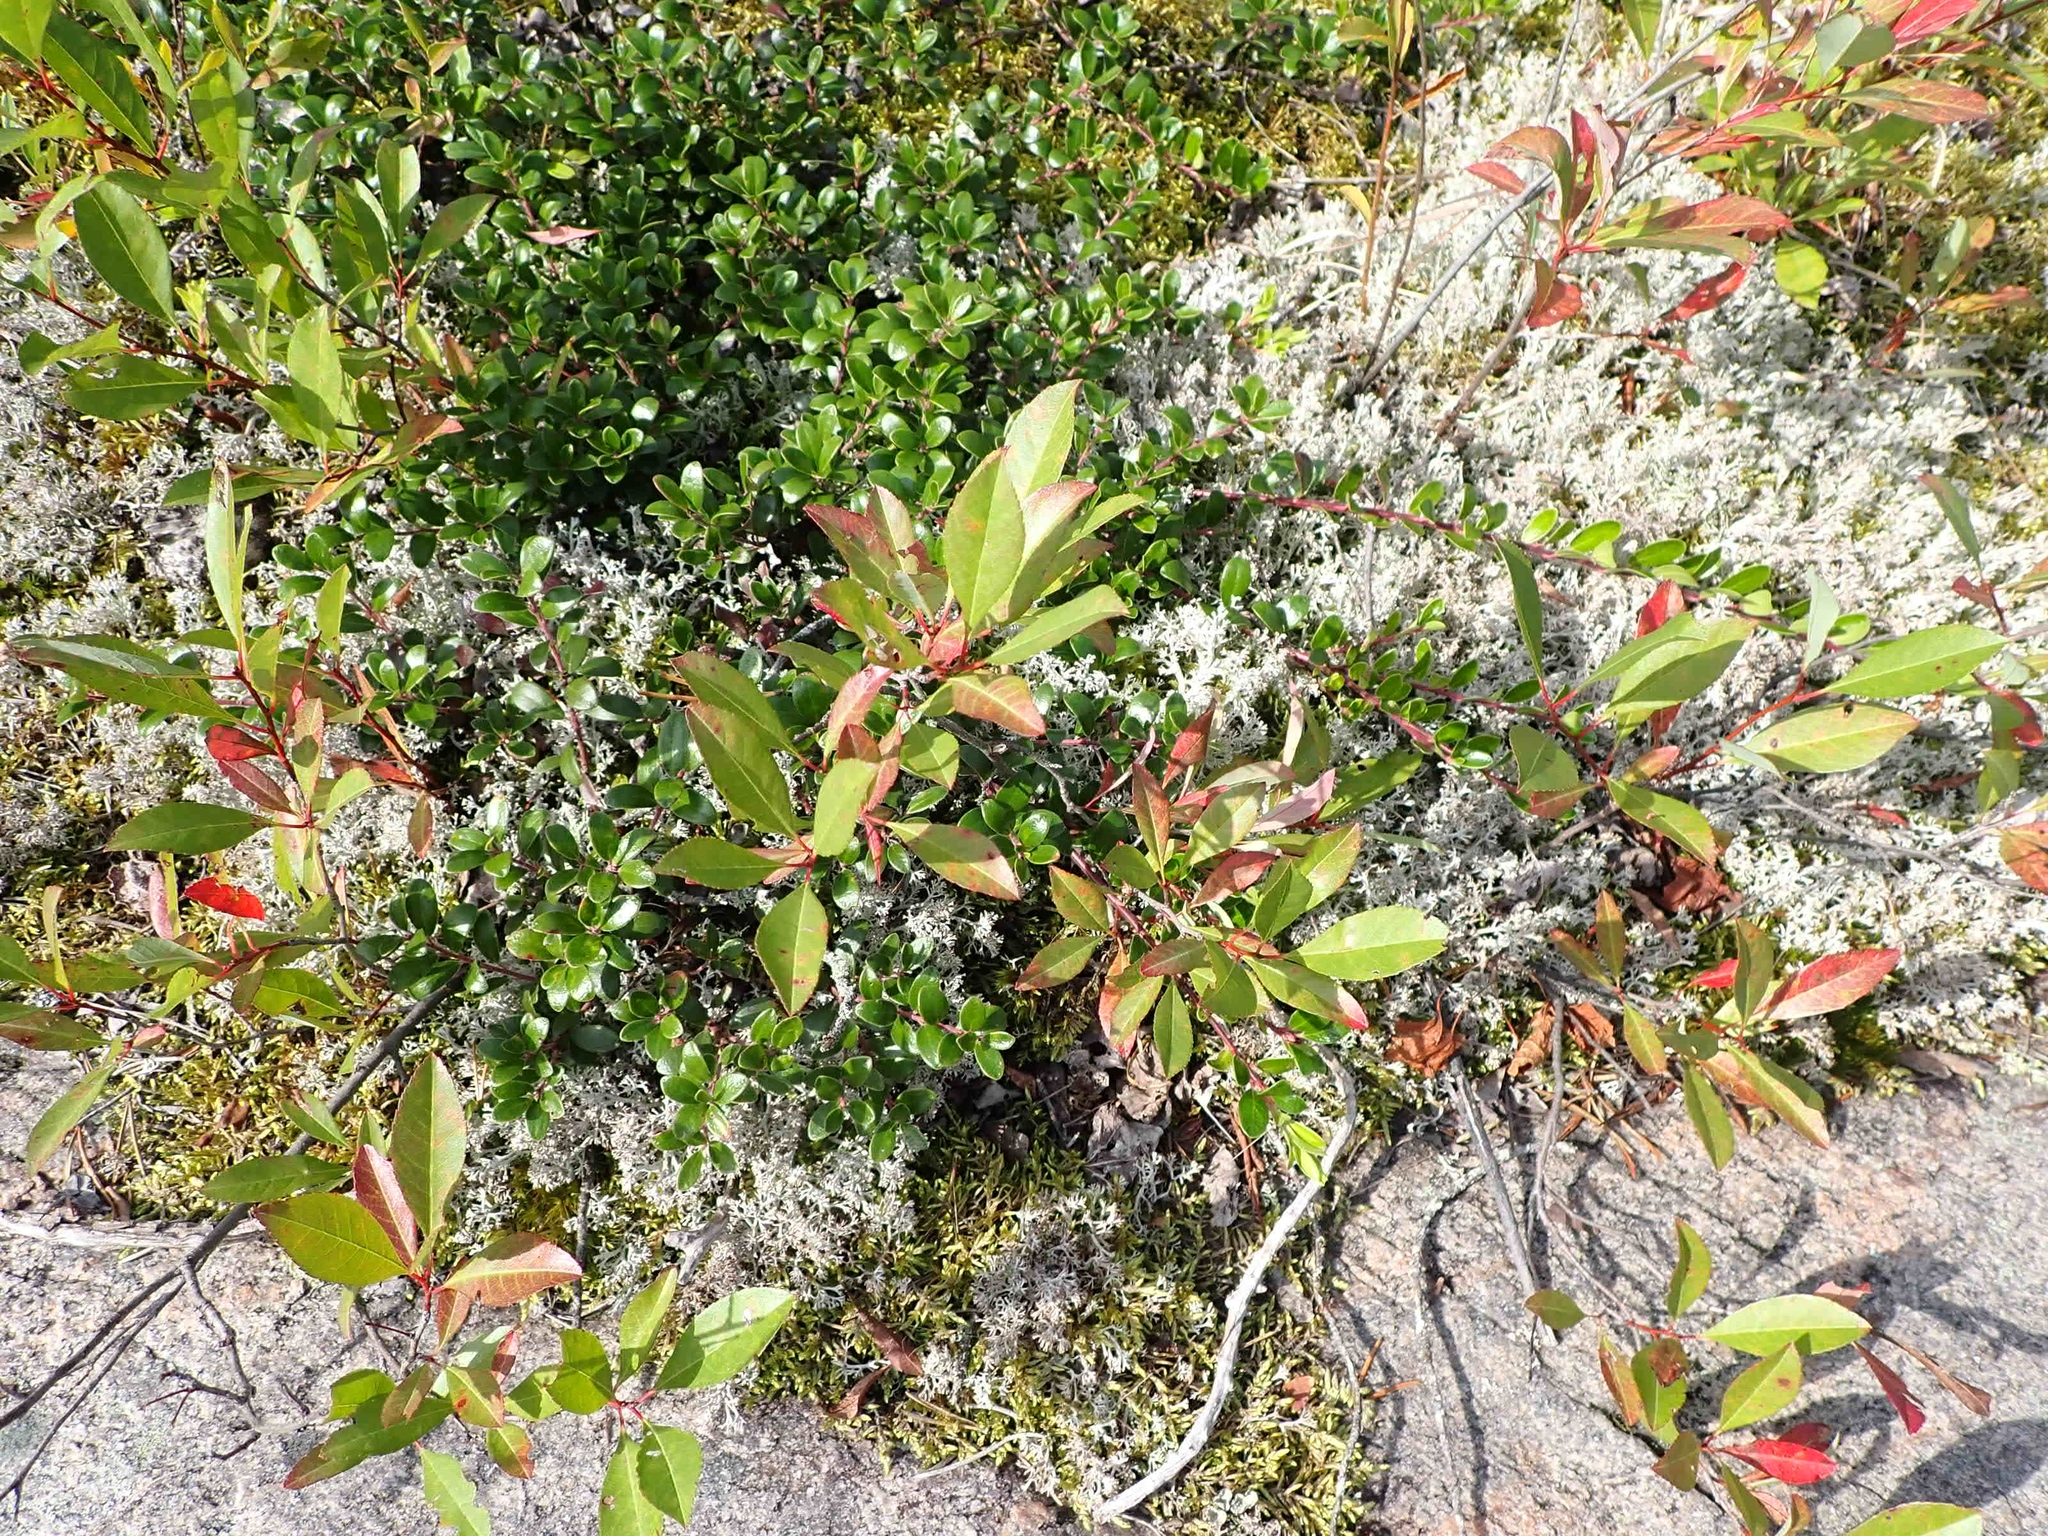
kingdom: Plantae
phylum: Tracheophyta
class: Magnoliopsida
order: Rosales
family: Rosaceae
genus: Prunus
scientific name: Prunus pumila
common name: Dwarf cherry
